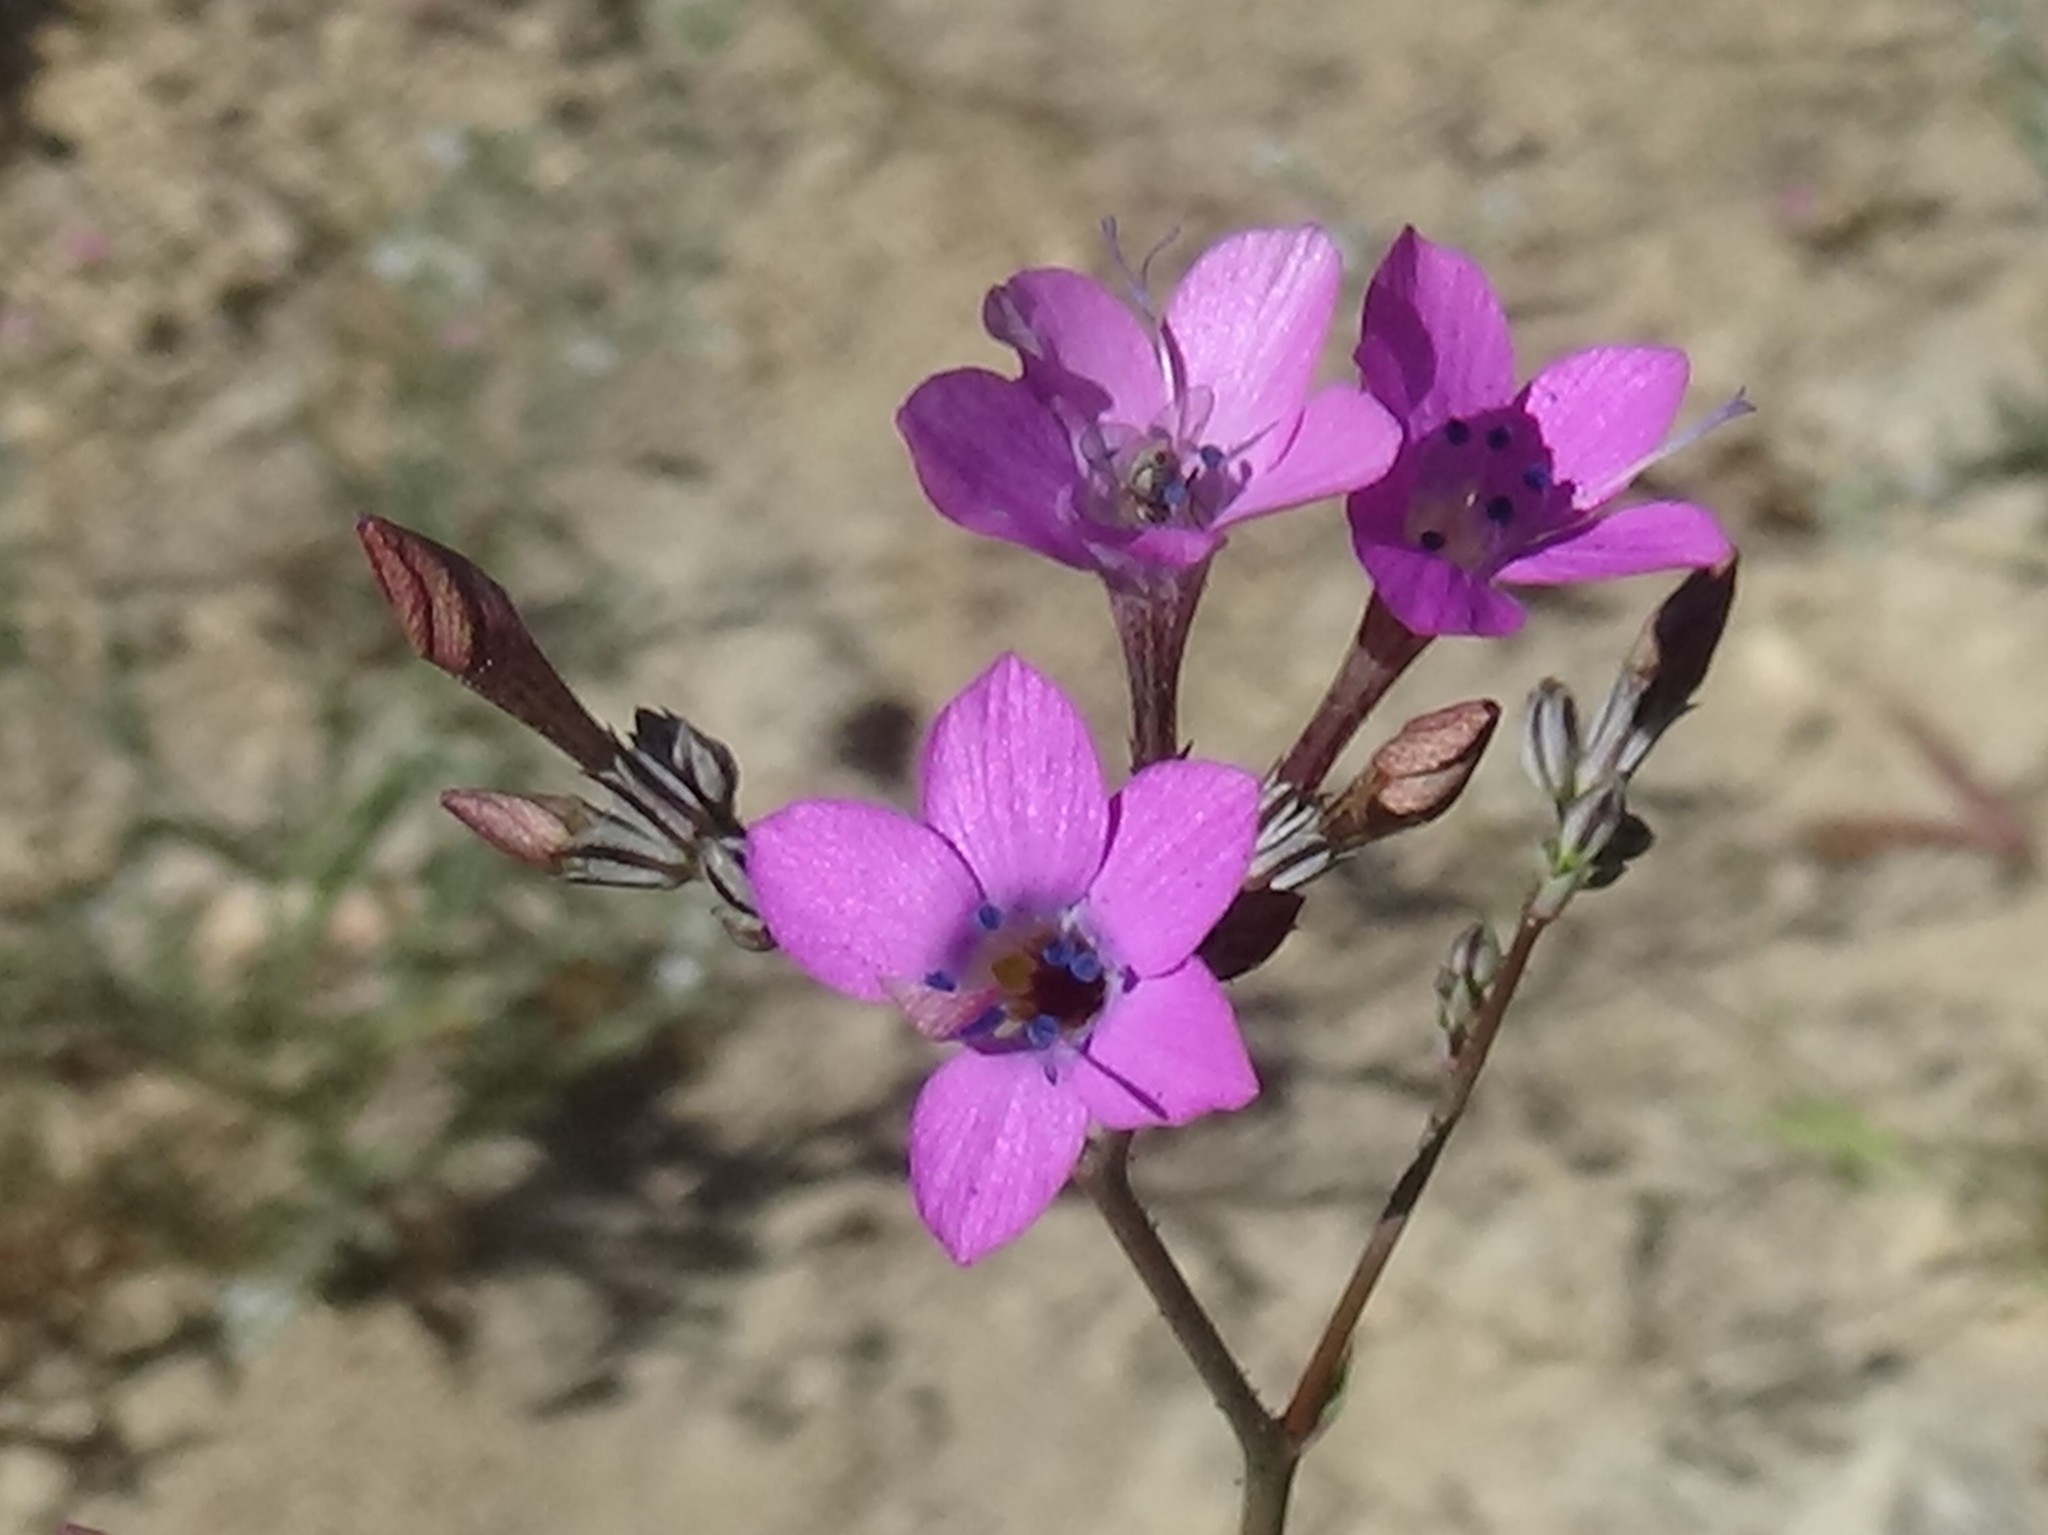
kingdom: Plantae
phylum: Tracheophyta
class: Magnoliopsida
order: Ericales
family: Polemoniaceae
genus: Saltugilia
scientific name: Saltugilia splendens
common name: Grinnell's gilia
